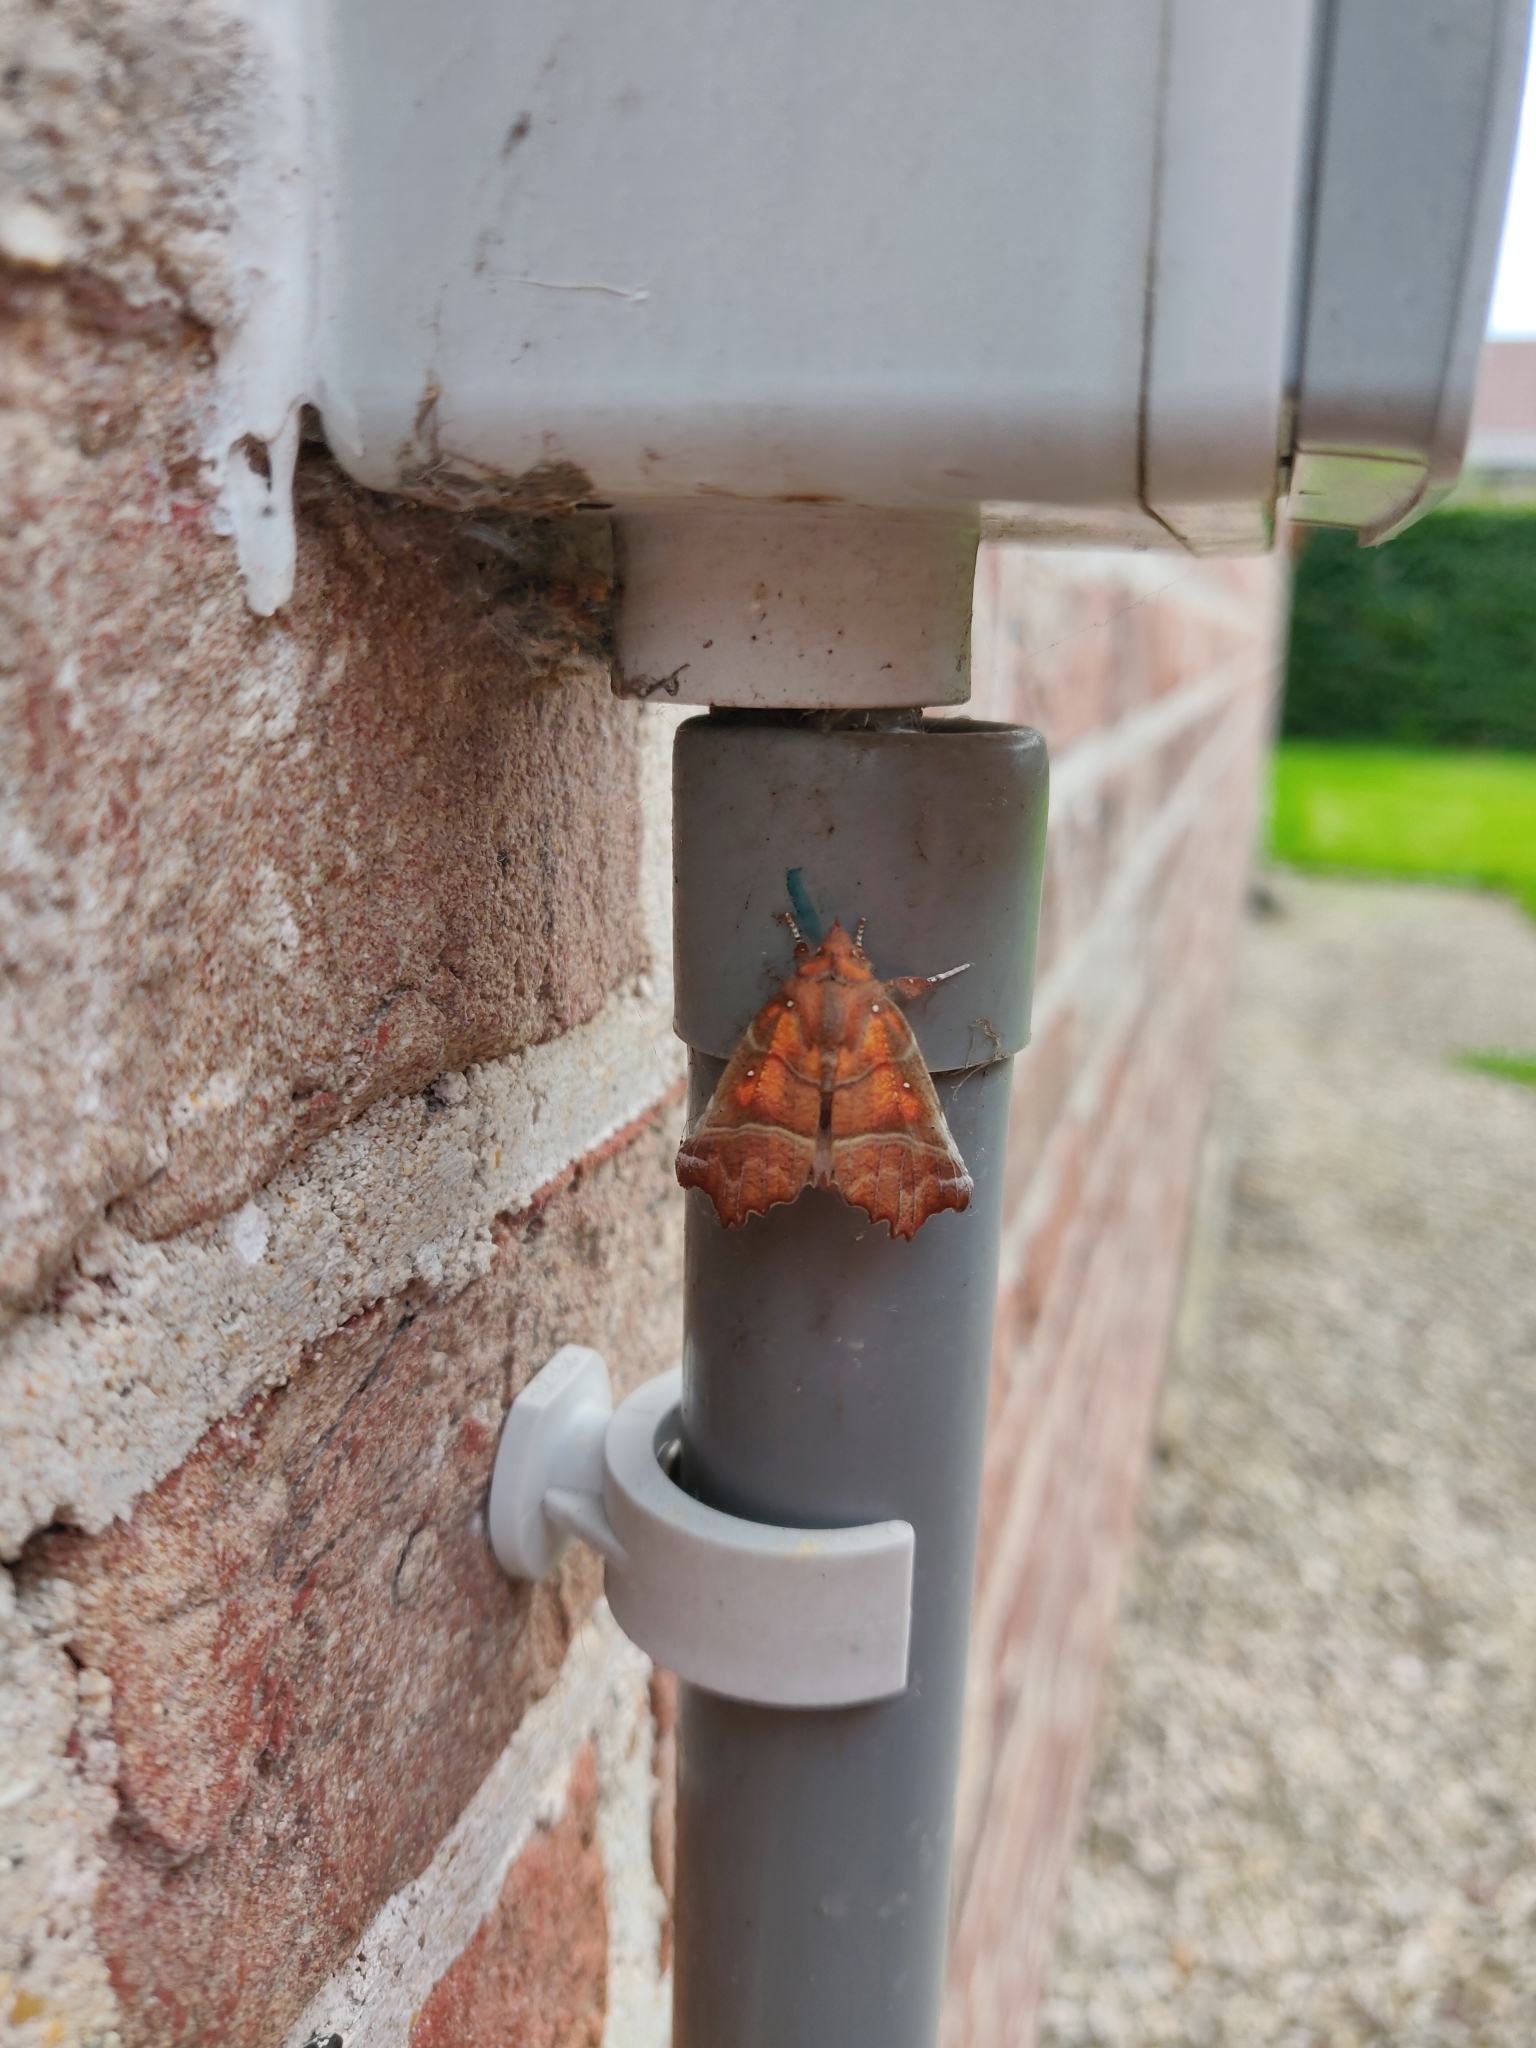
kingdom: Animalia
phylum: Arthropoda
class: Insecta
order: Lepidoptera
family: Erebidae
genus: Scoliopteryx
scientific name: Scoliopteryx libatrix
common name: Herald
